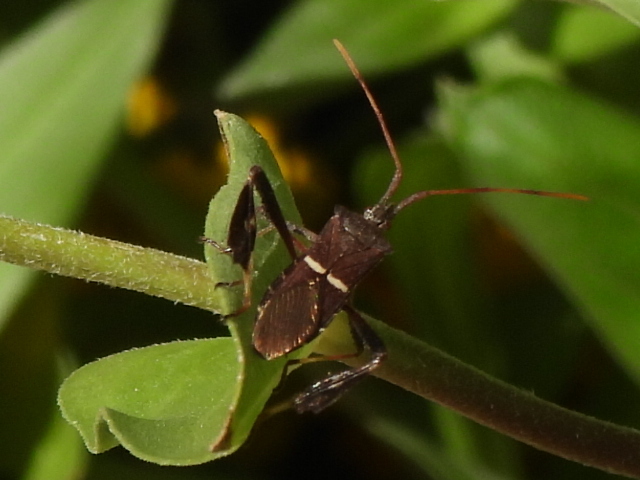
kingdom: Animalia
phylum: Arthropoda
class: Insecta
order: Hemiptera
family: Coreidae
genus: Leptoglossus
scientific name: Leptoglossus phyllopus
